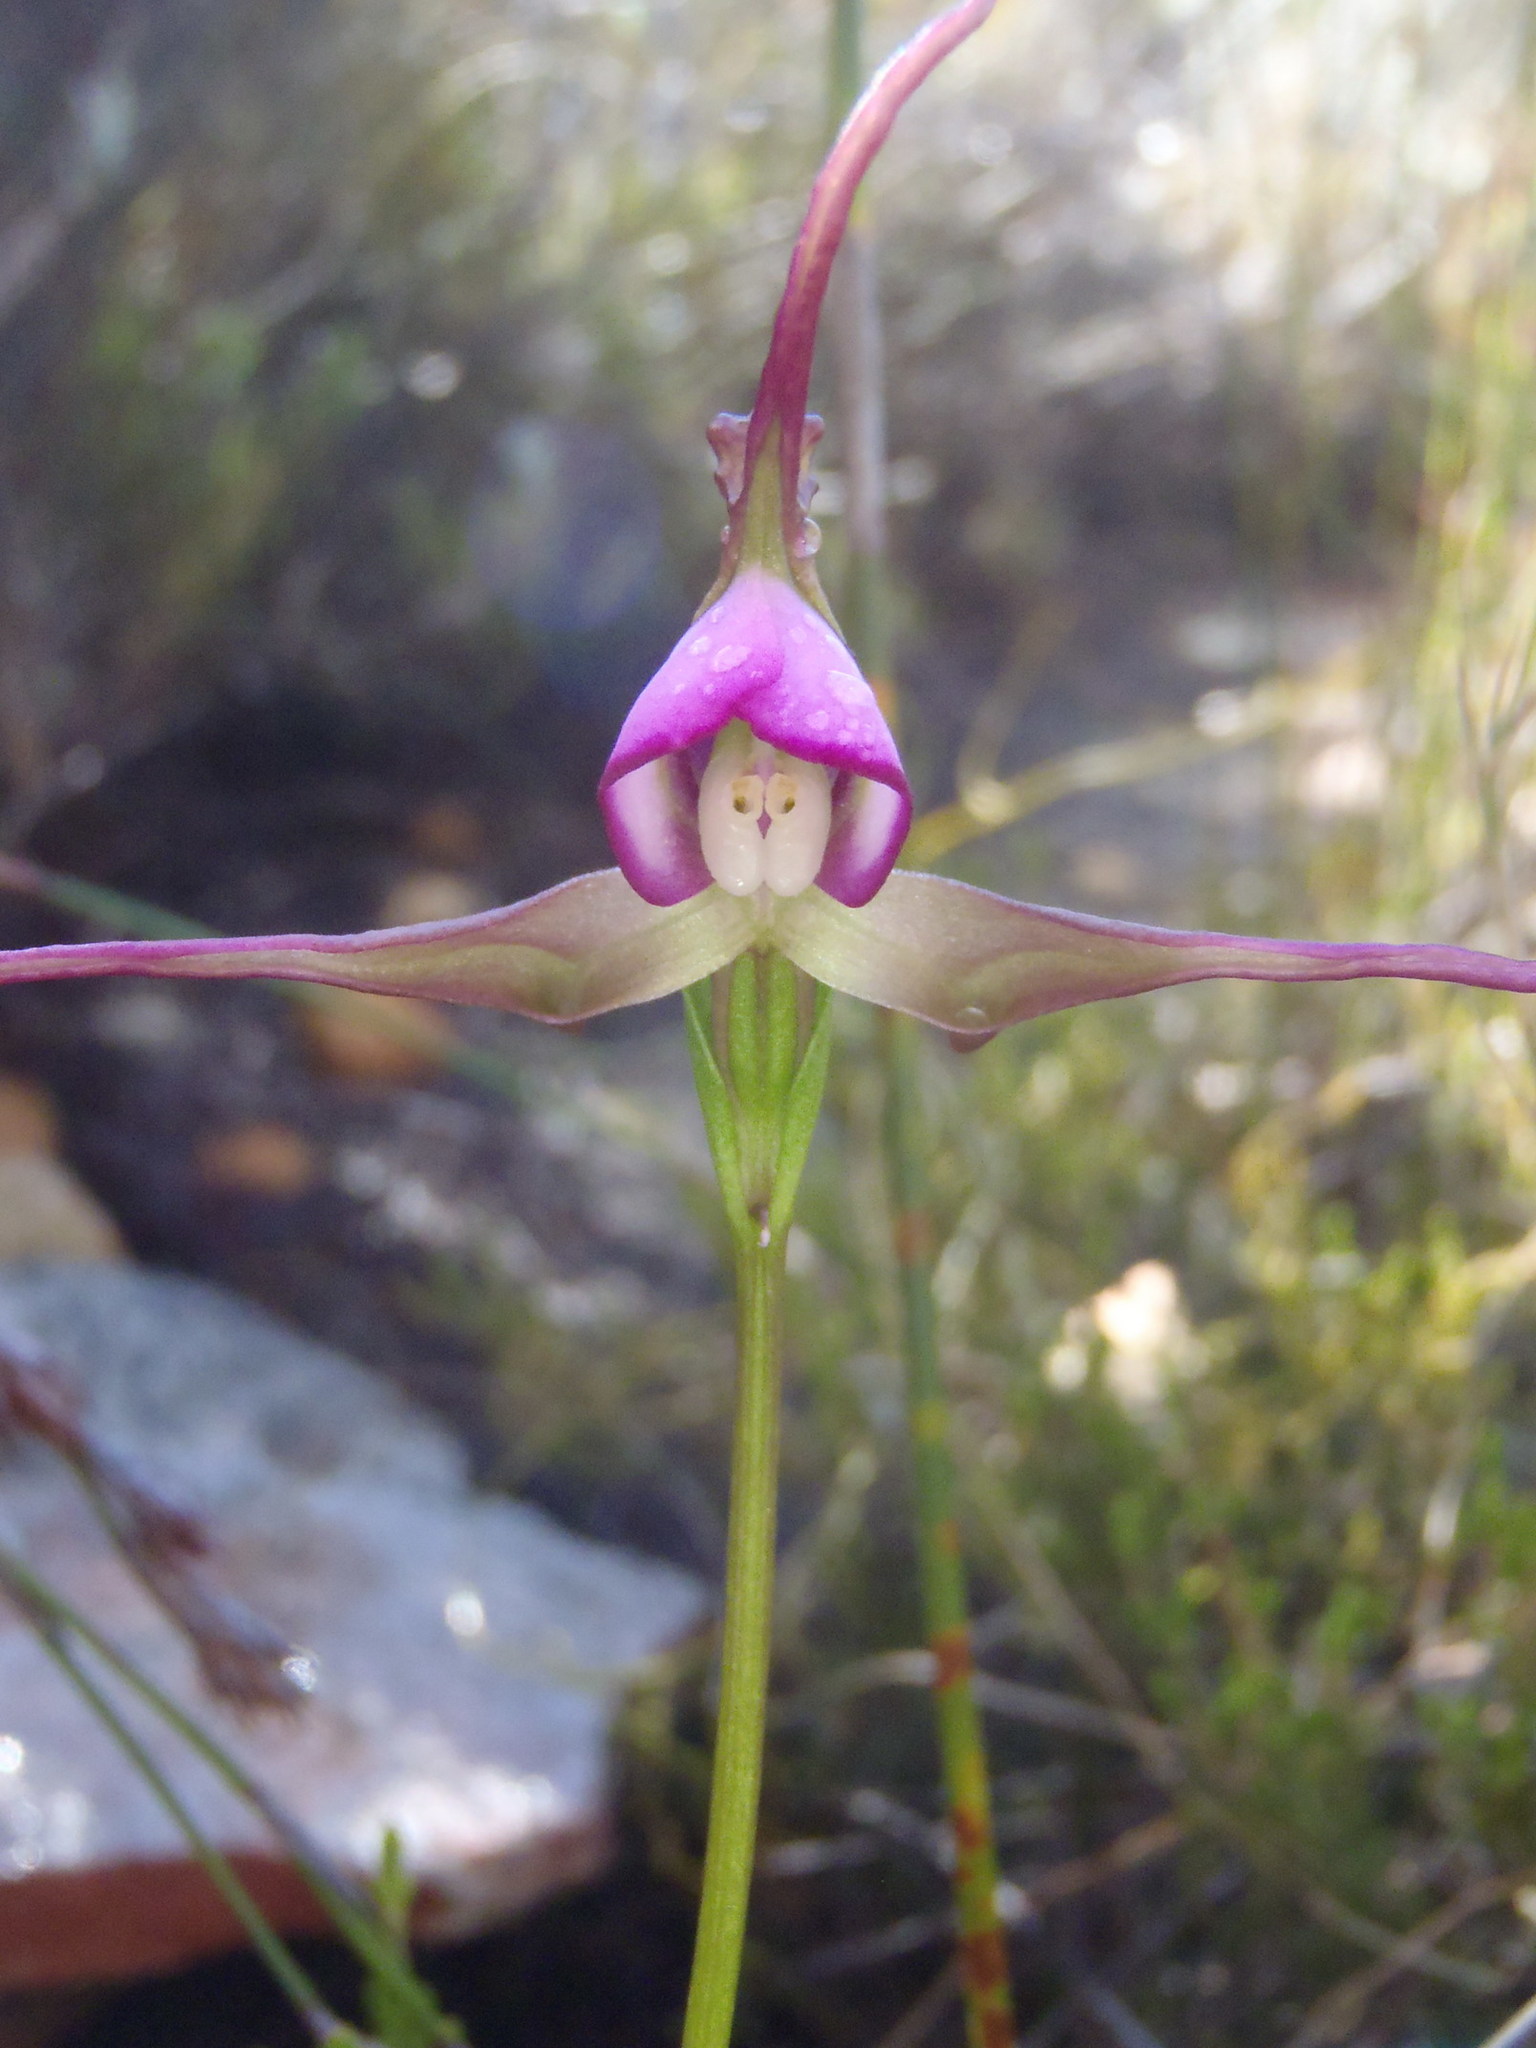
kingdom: Plantae
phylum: Tracheophyta
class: Liliopsida
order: Asparagales
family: Orchidaceae
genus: Disperis
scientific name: Disperis capensis
